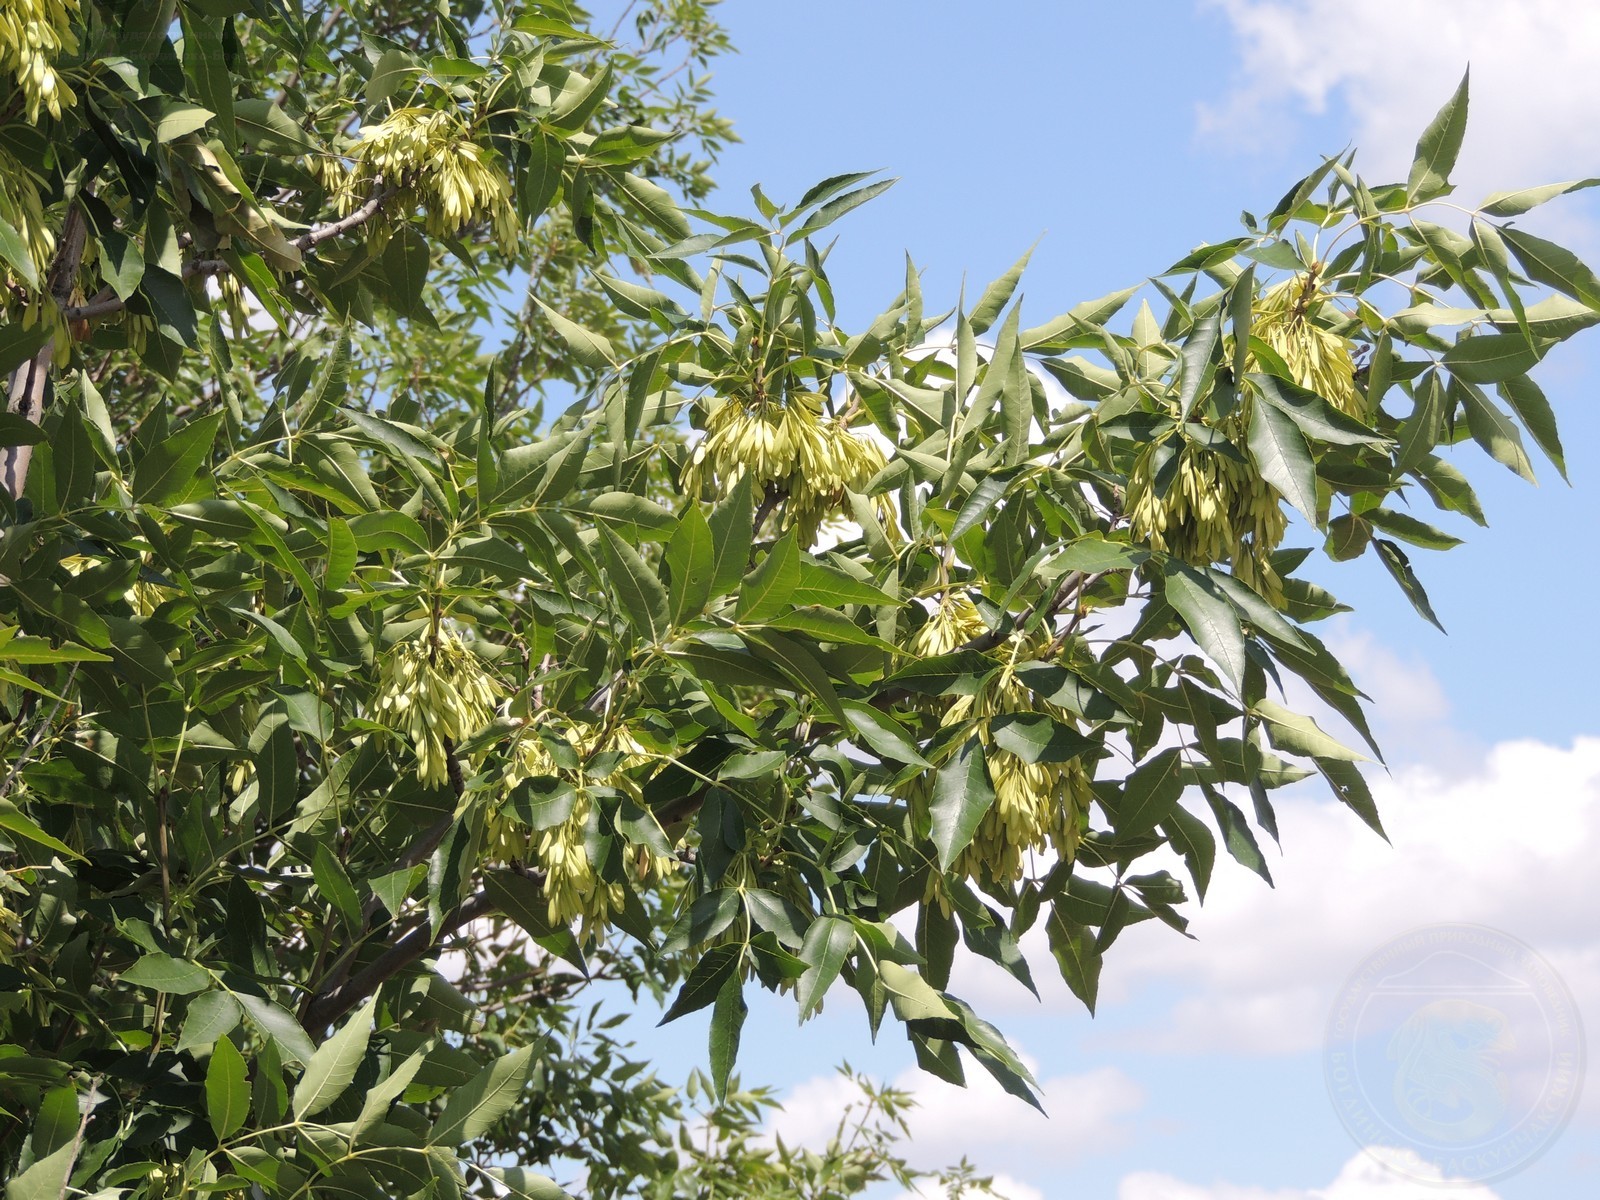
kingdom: Plantae
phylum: Tracheophyta
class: Magnoliopsida
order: Lamiales
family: Oleaceae
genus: Fraxinus
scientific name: Fraxinus pennsylvanica
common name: Green ash
